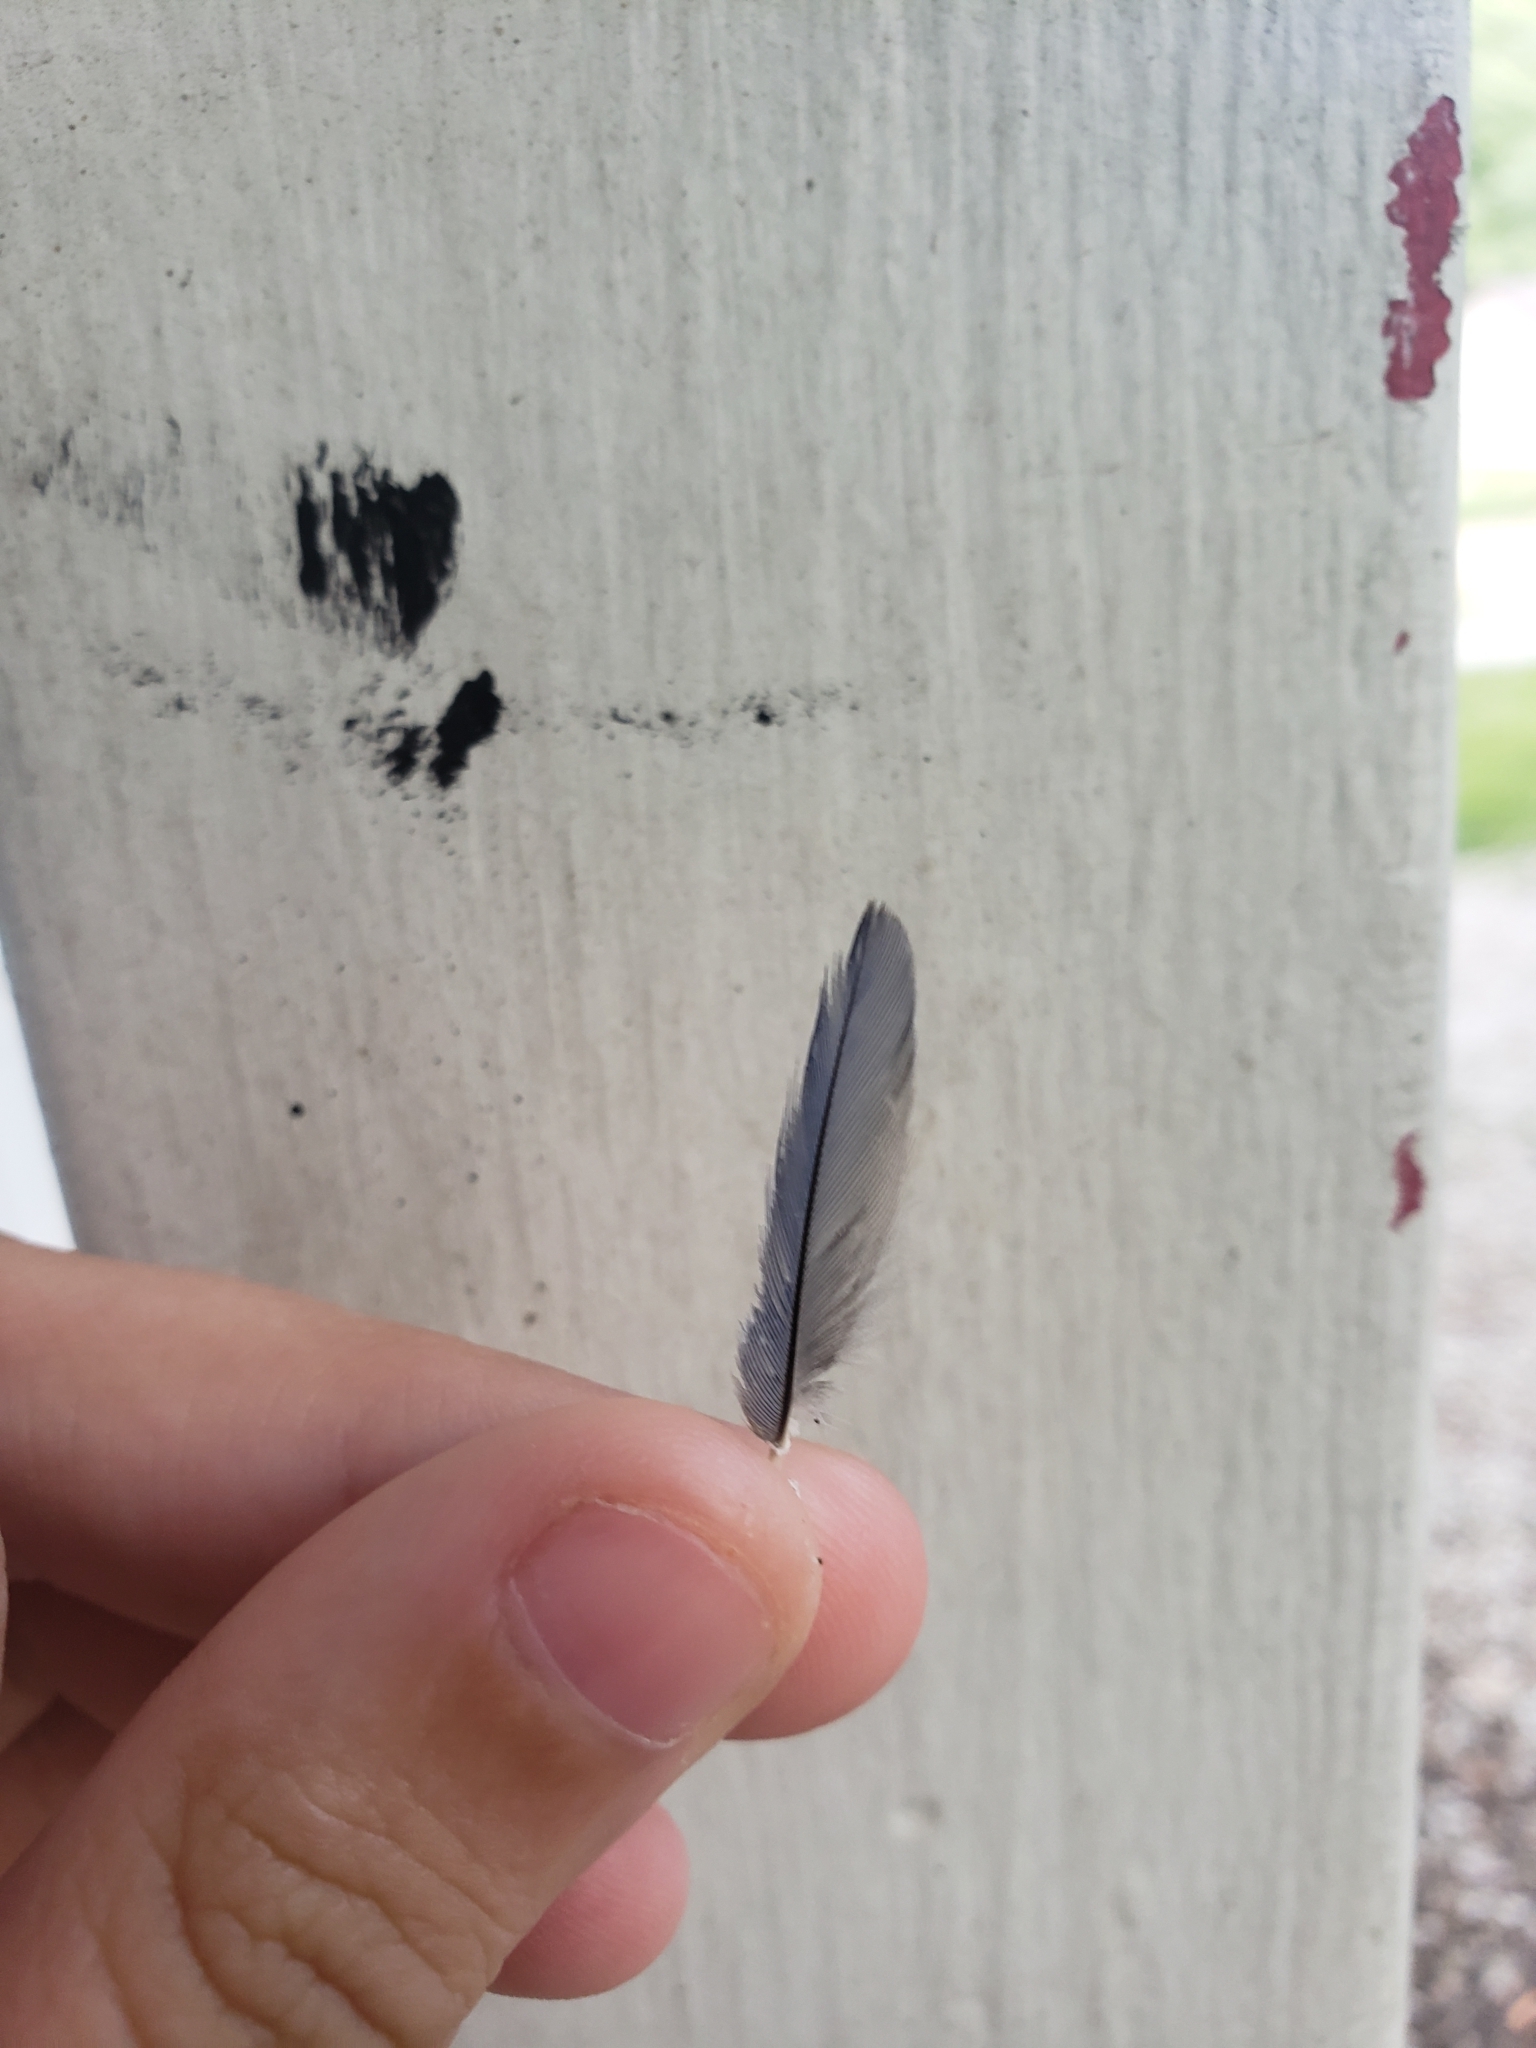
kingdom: Animalia
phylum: Chordata
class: Aves
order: Passeriformes
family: Turdidae
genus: Sialia
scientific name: Sialia sialis
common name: Eastern bluebird
